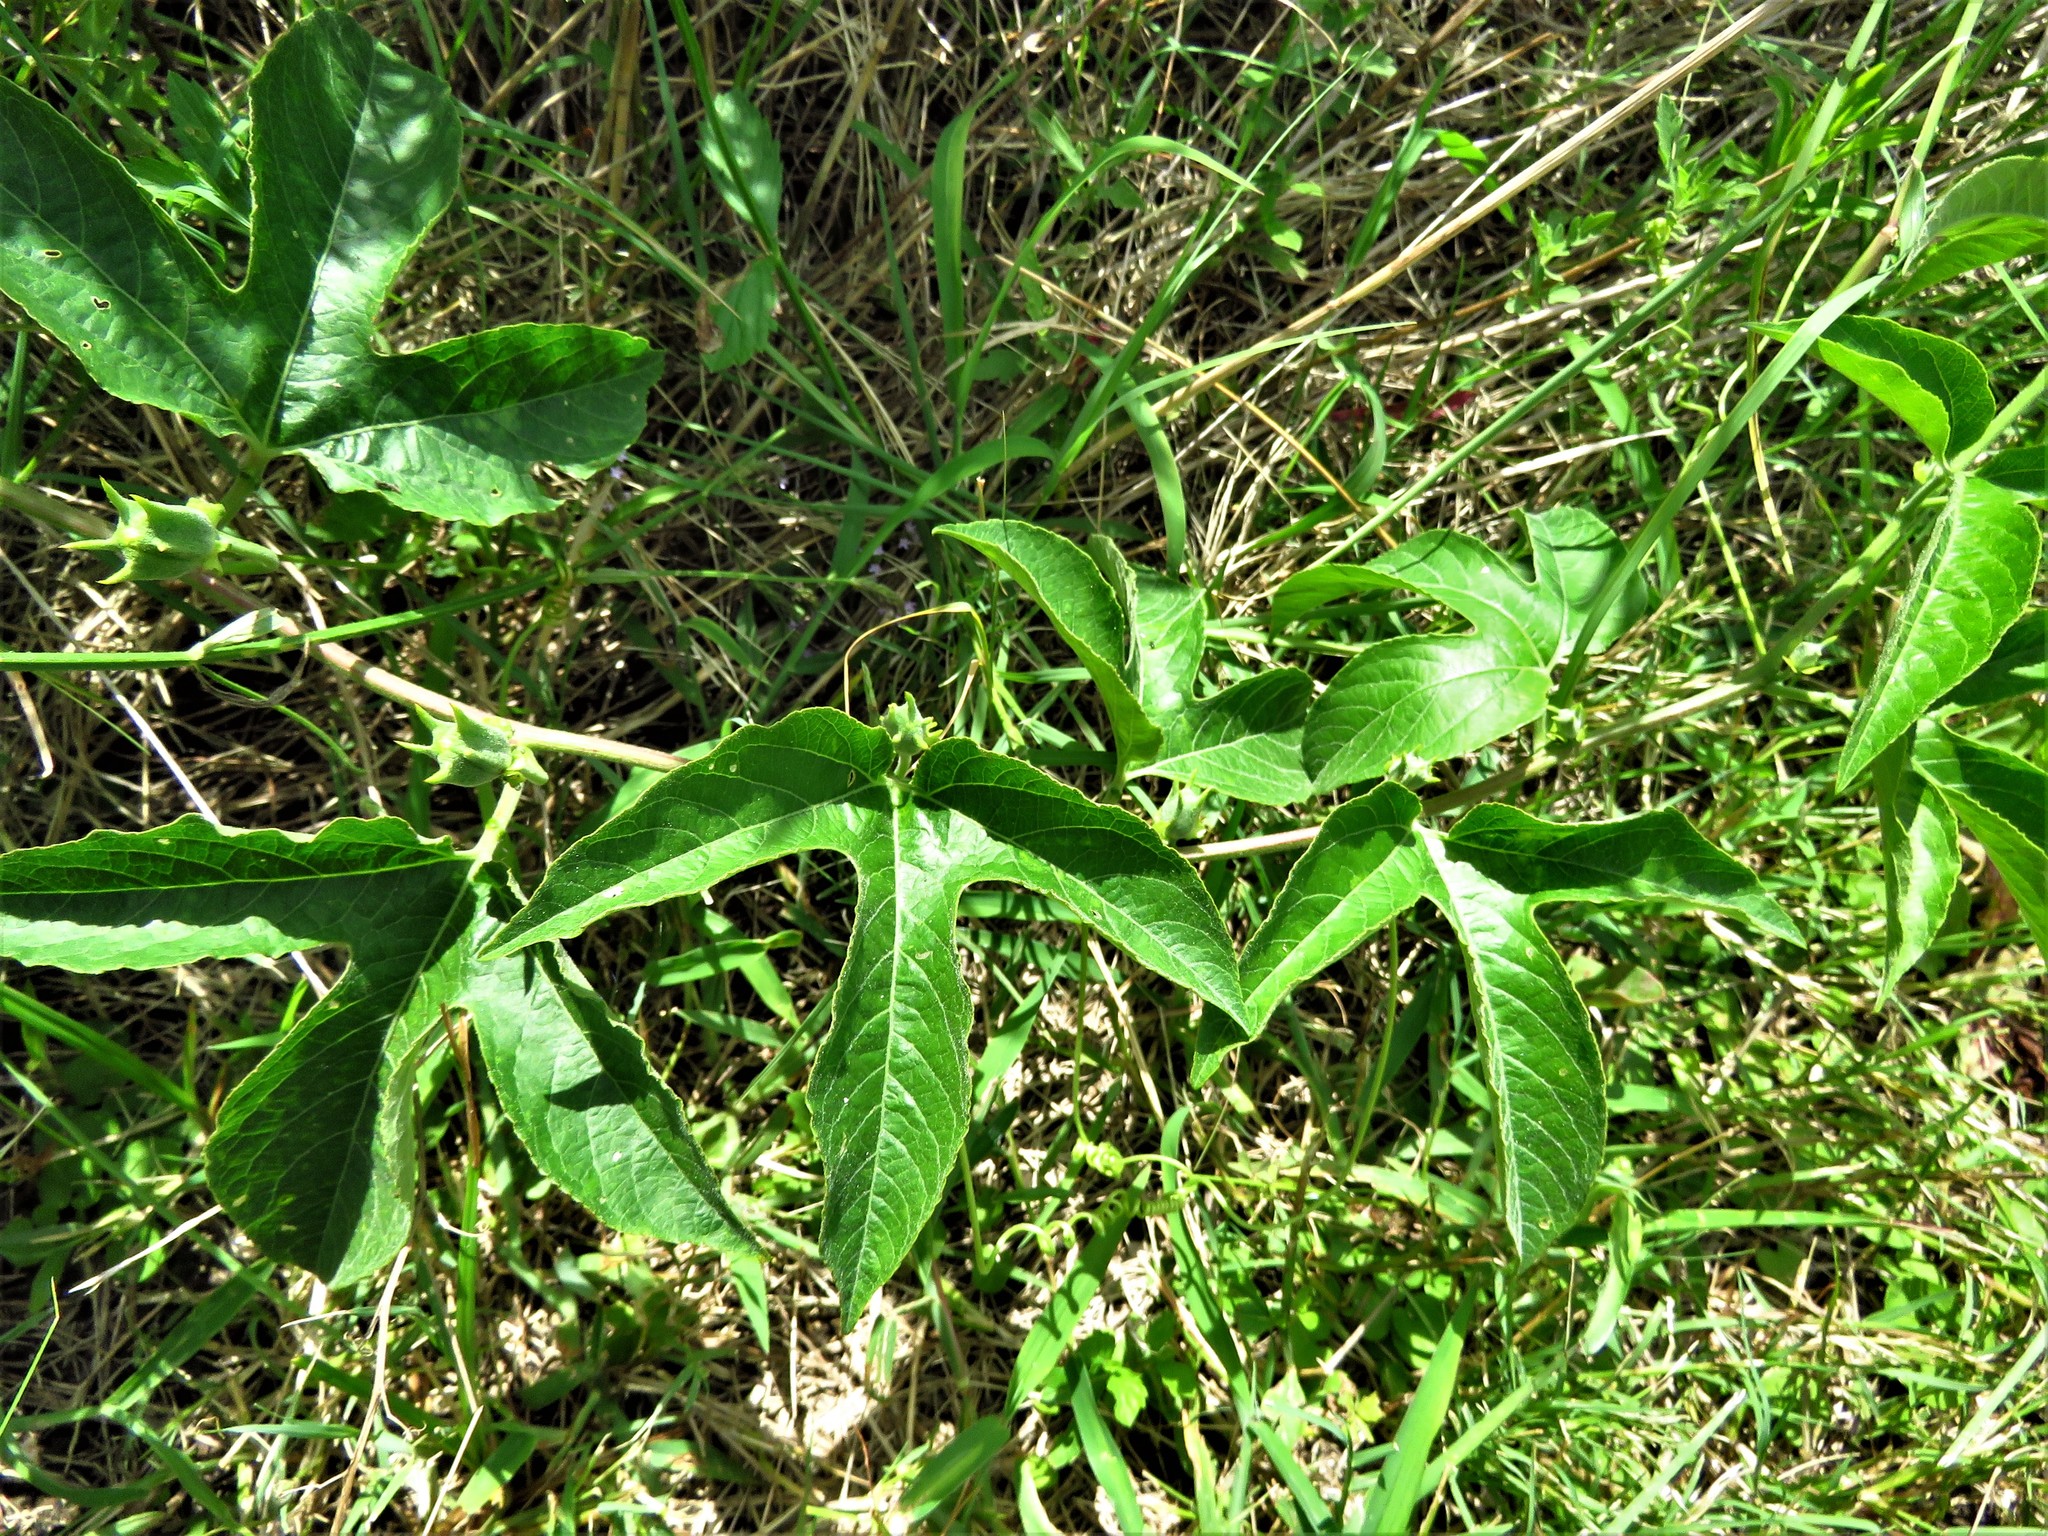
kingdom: Plantae
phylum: Tracheophyta
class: Magnoliopsida
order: Malpighiales
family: Passifloraceae
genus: Passiflora
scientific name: Passiflora incarnata
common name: Apricot-vine
